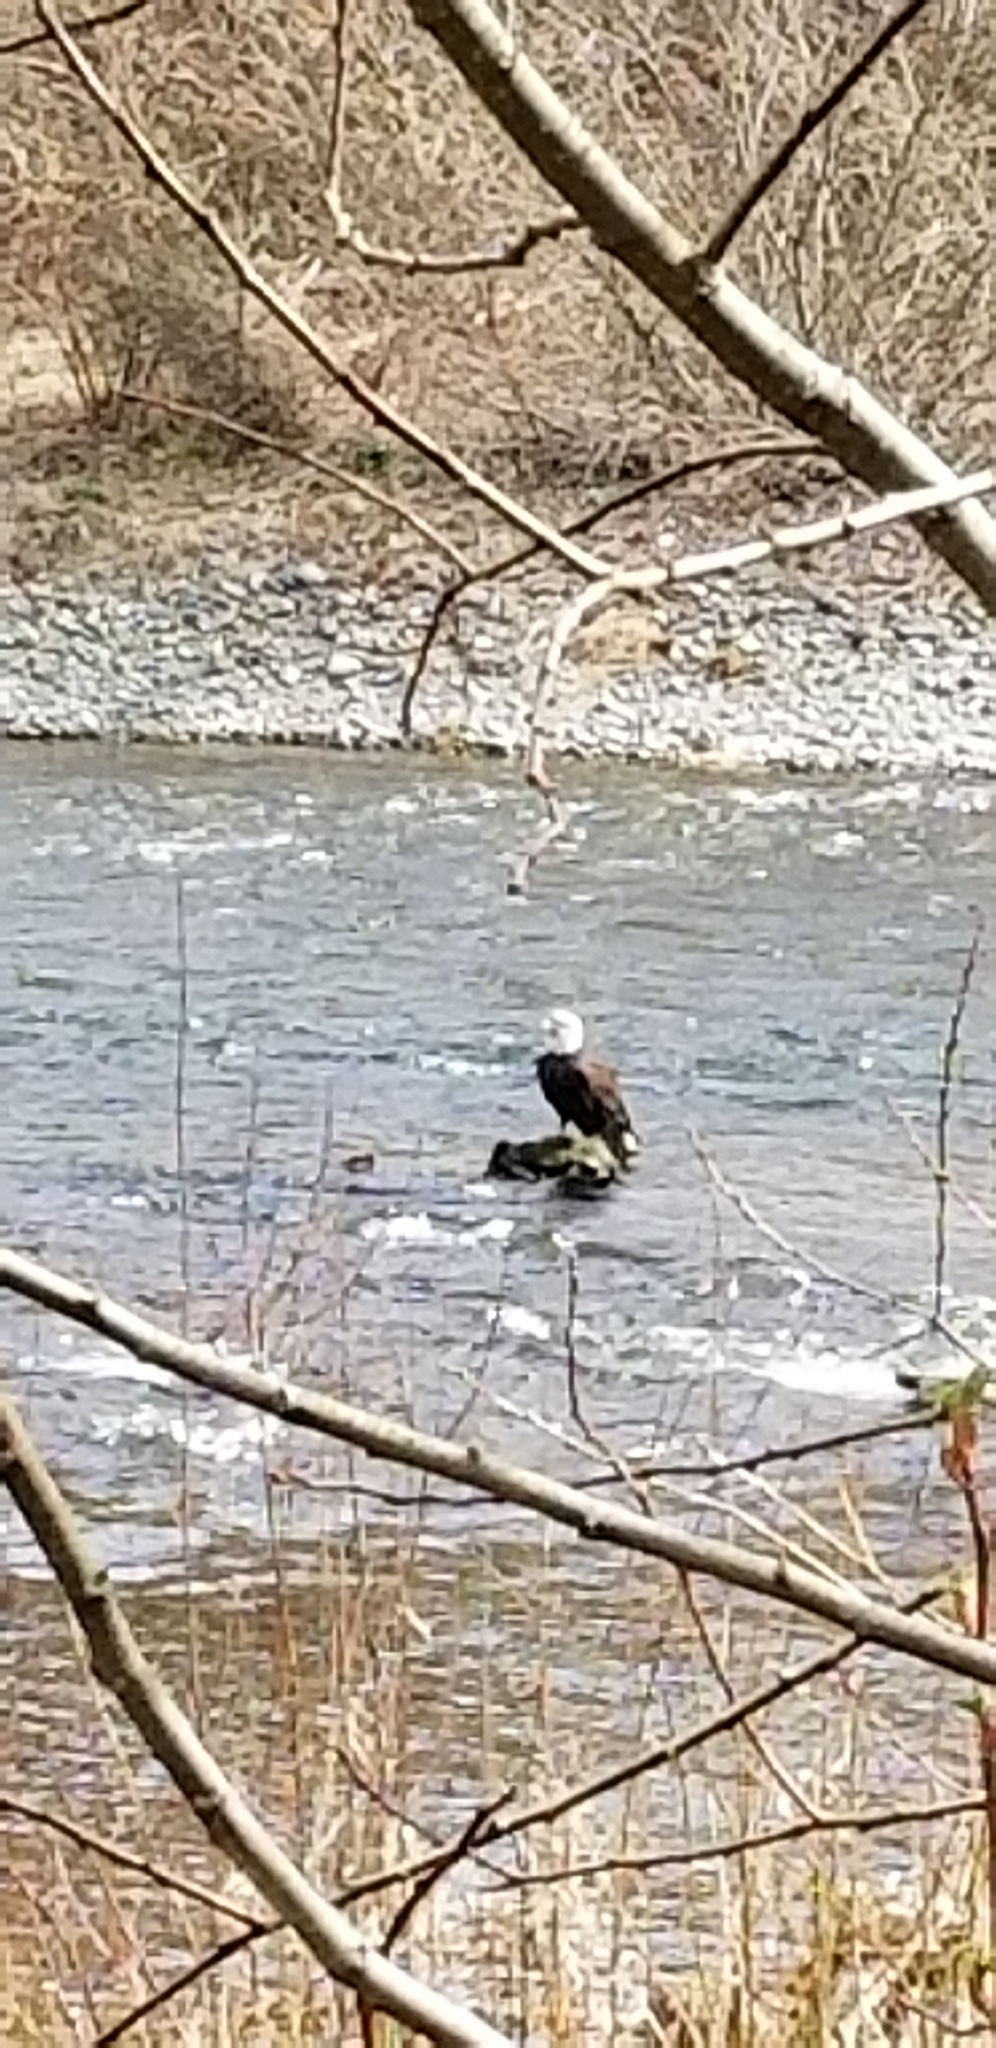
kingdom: Animalia
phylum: Chordata
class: Aves
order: Accipitriformes
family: Accipitridae
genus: Haliaeetus
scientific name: Haliaeetus leucocephalus
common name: Bald eagle
